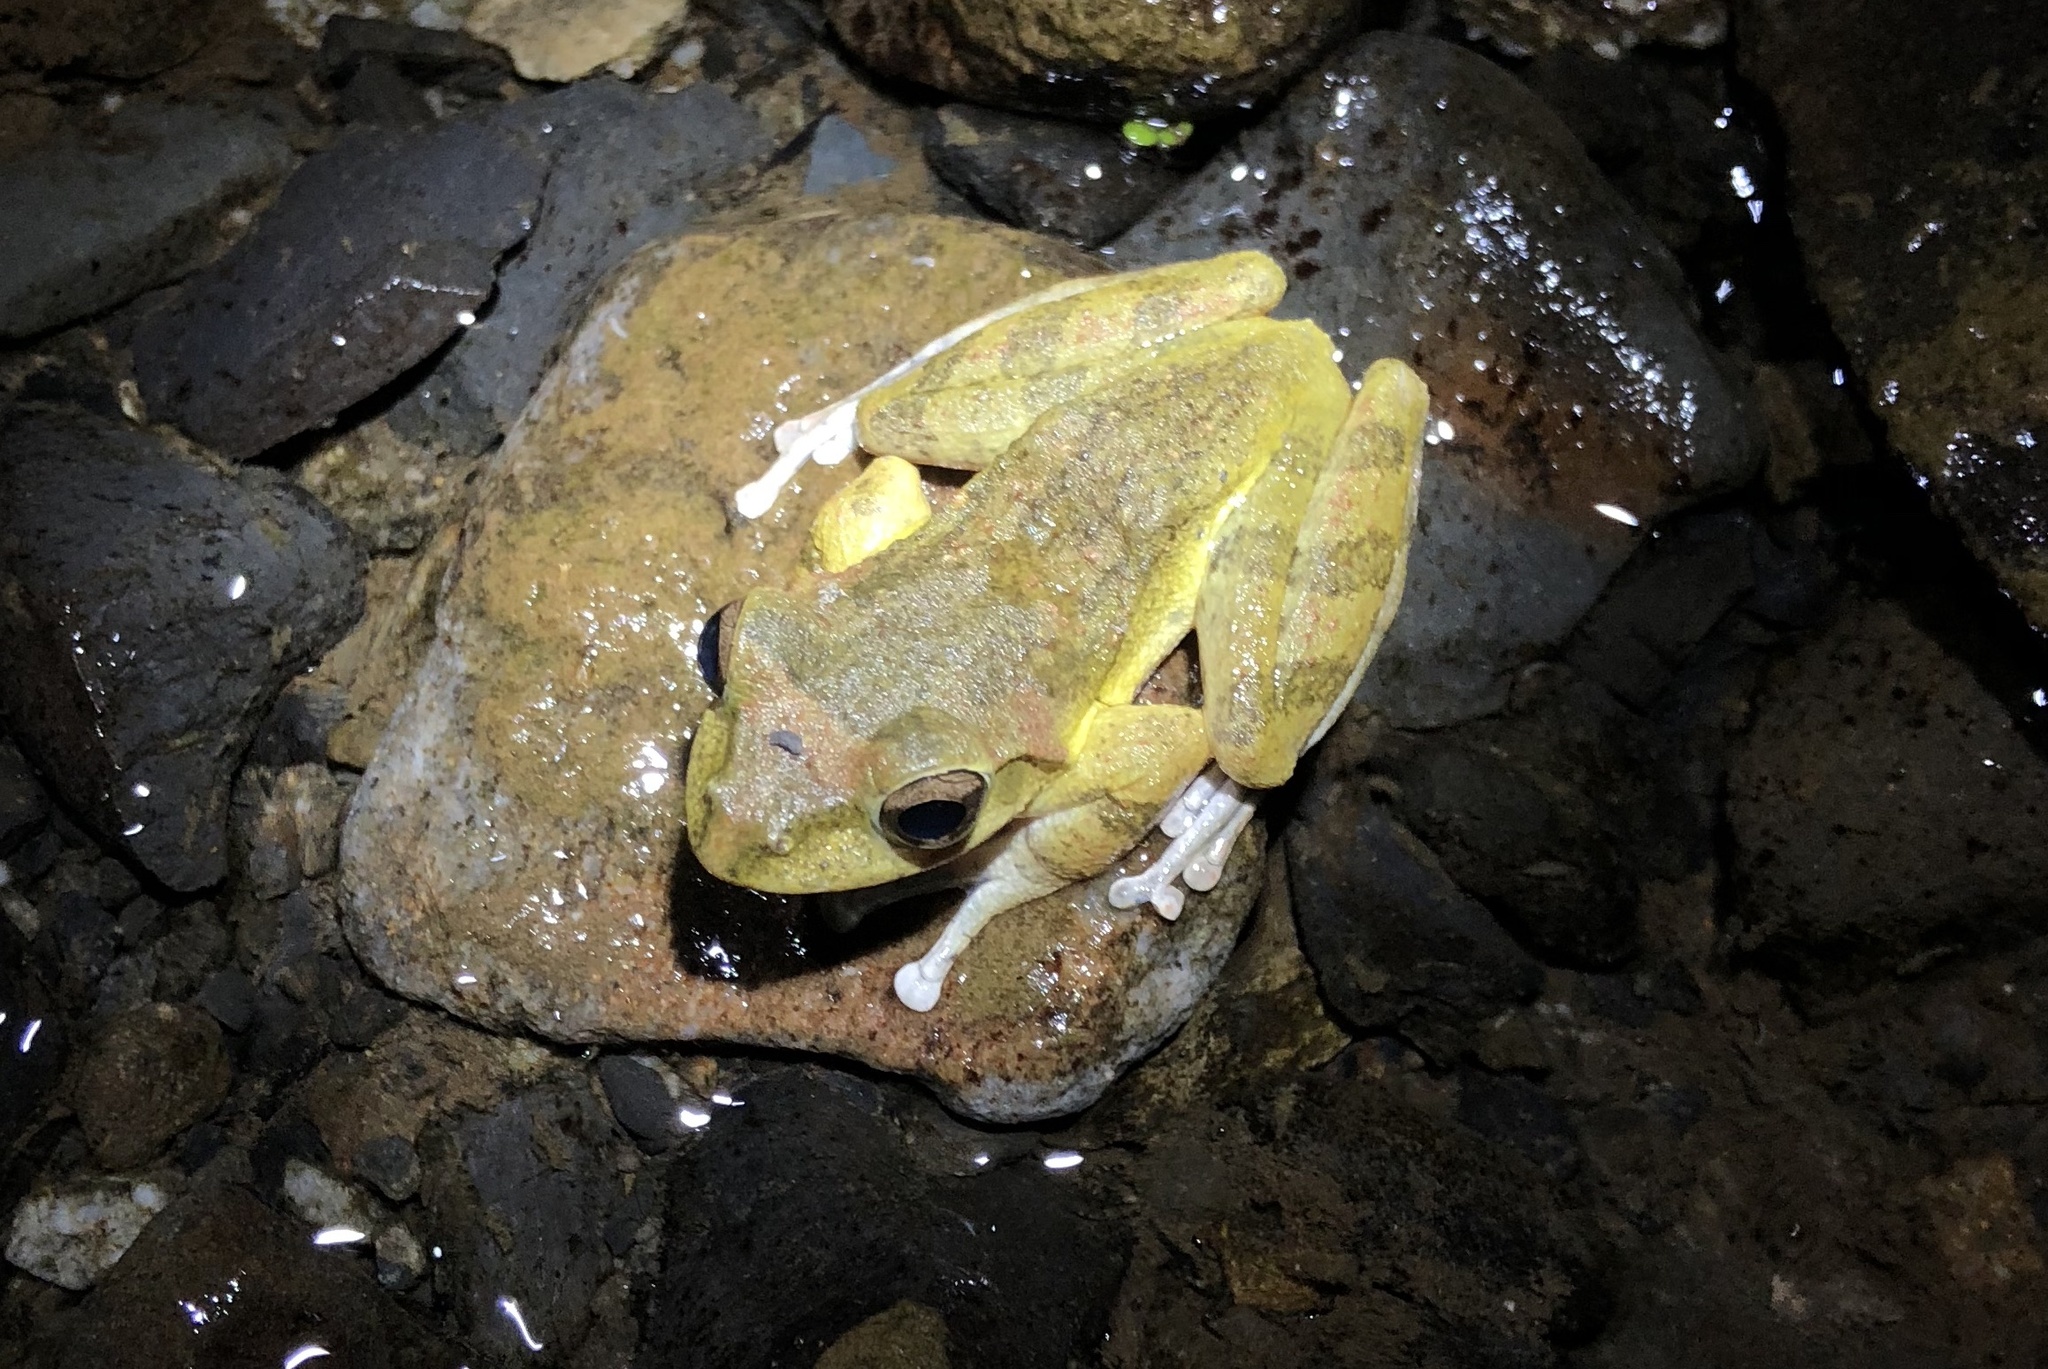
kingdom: Animalia
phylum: Chordata
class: Amphibia
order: Anura
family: Rhacophoridae
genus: Buergeria
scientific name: Buergeria robusta
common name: Brown treefrog
